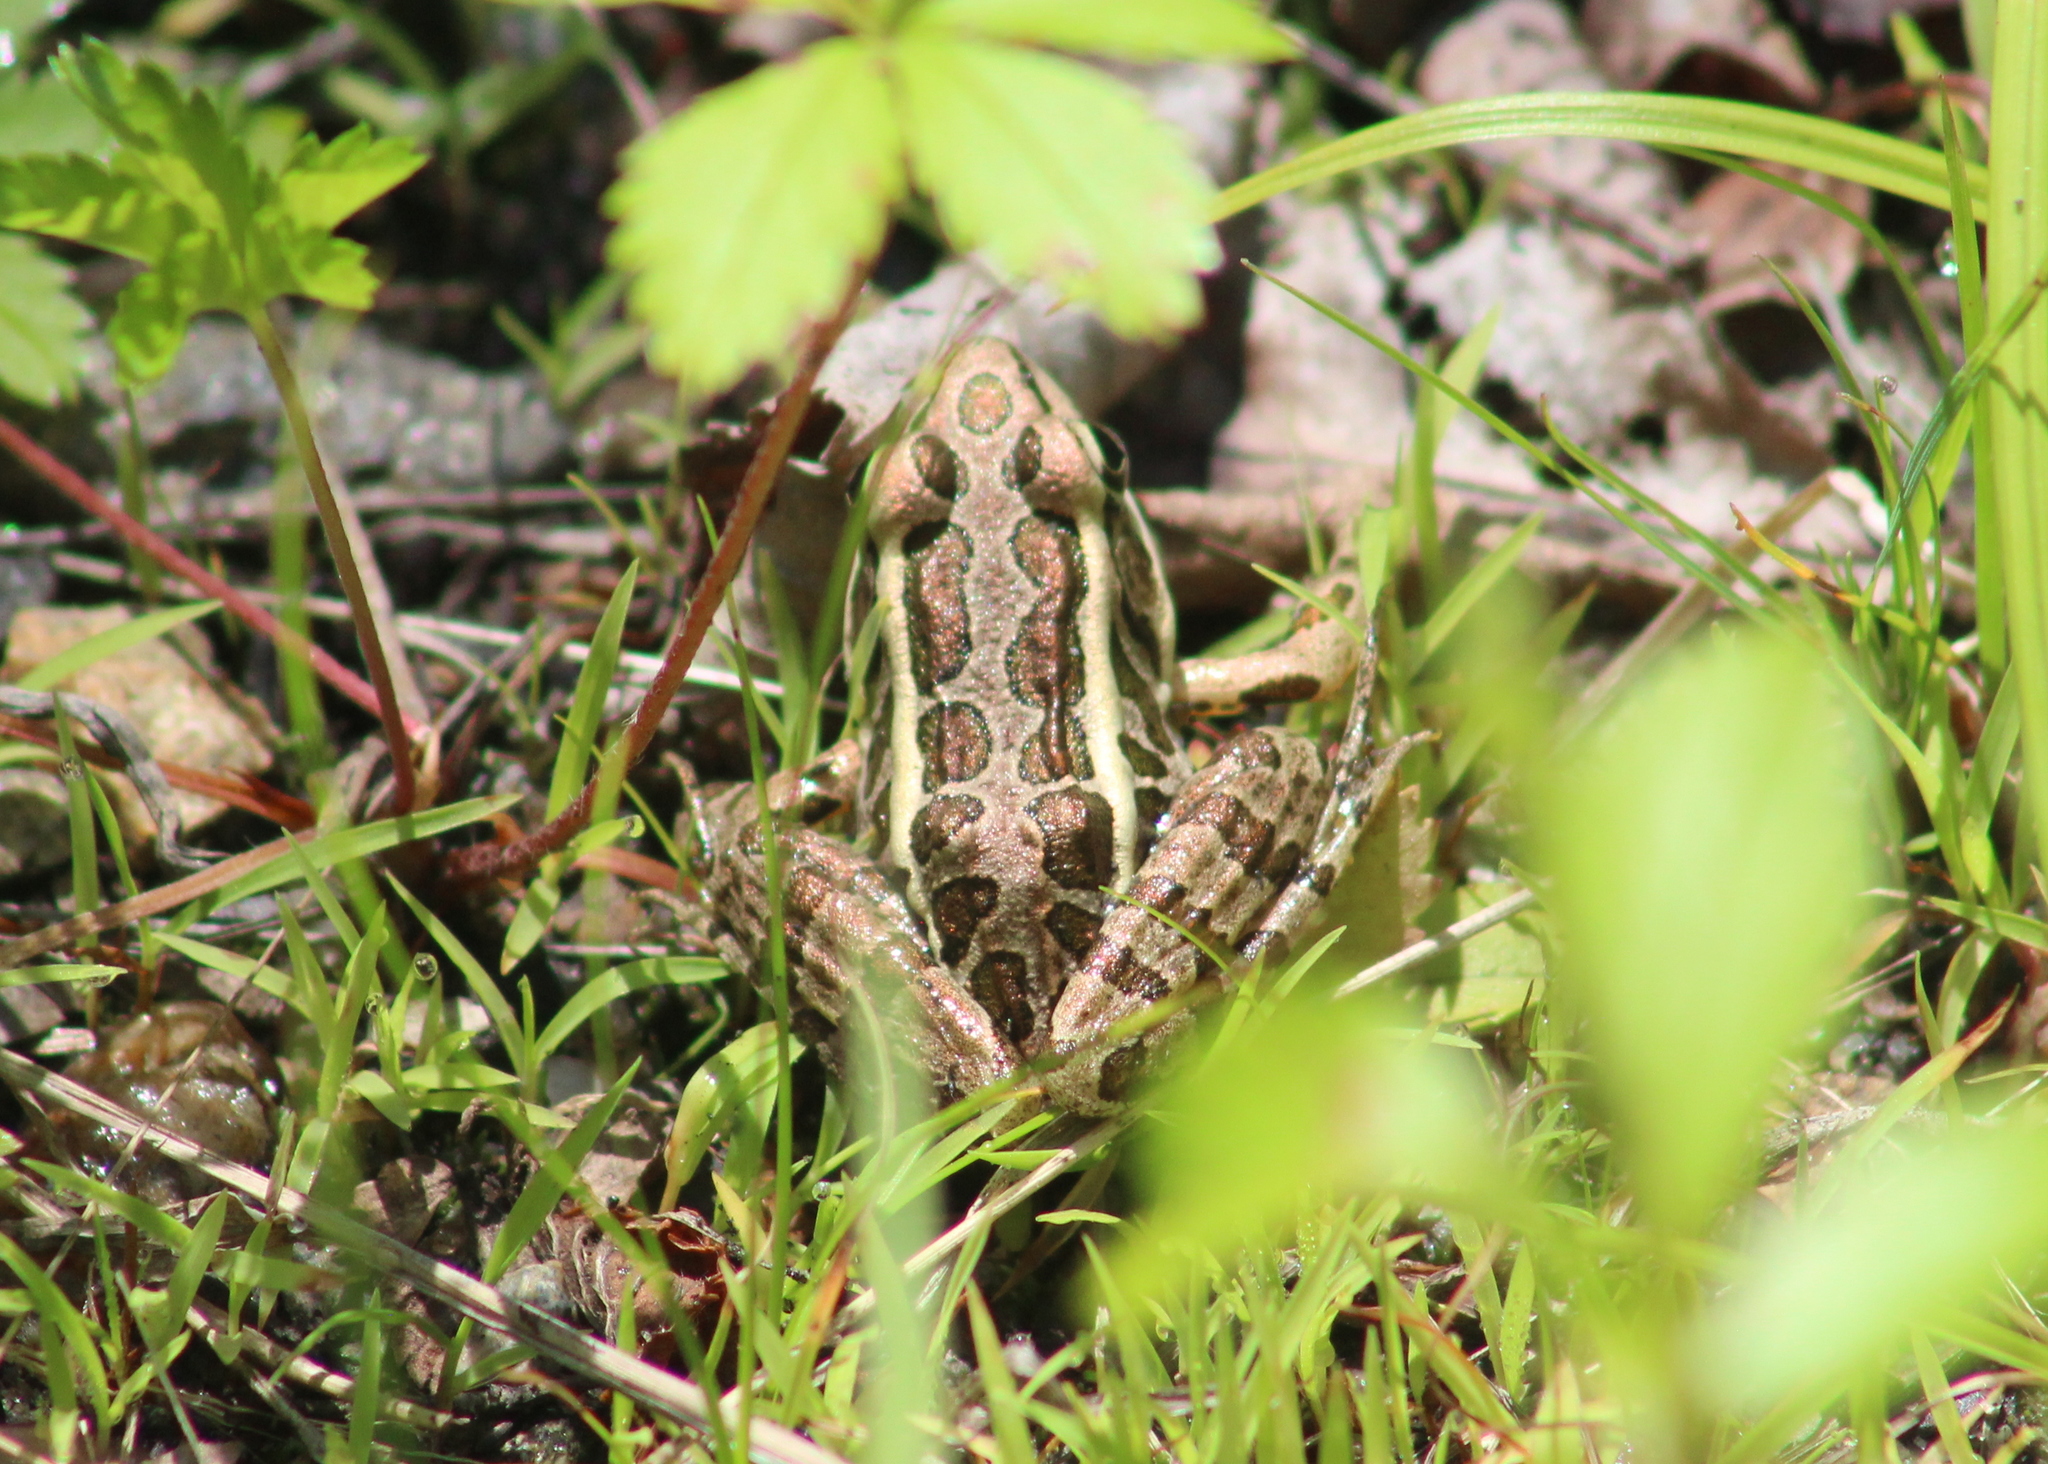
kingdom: Animalia
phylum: Chordata
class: Amphibia
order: Anura
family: Ranidae
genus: Lithobates
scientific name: Lithobates palustris
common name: Pickerel frog
